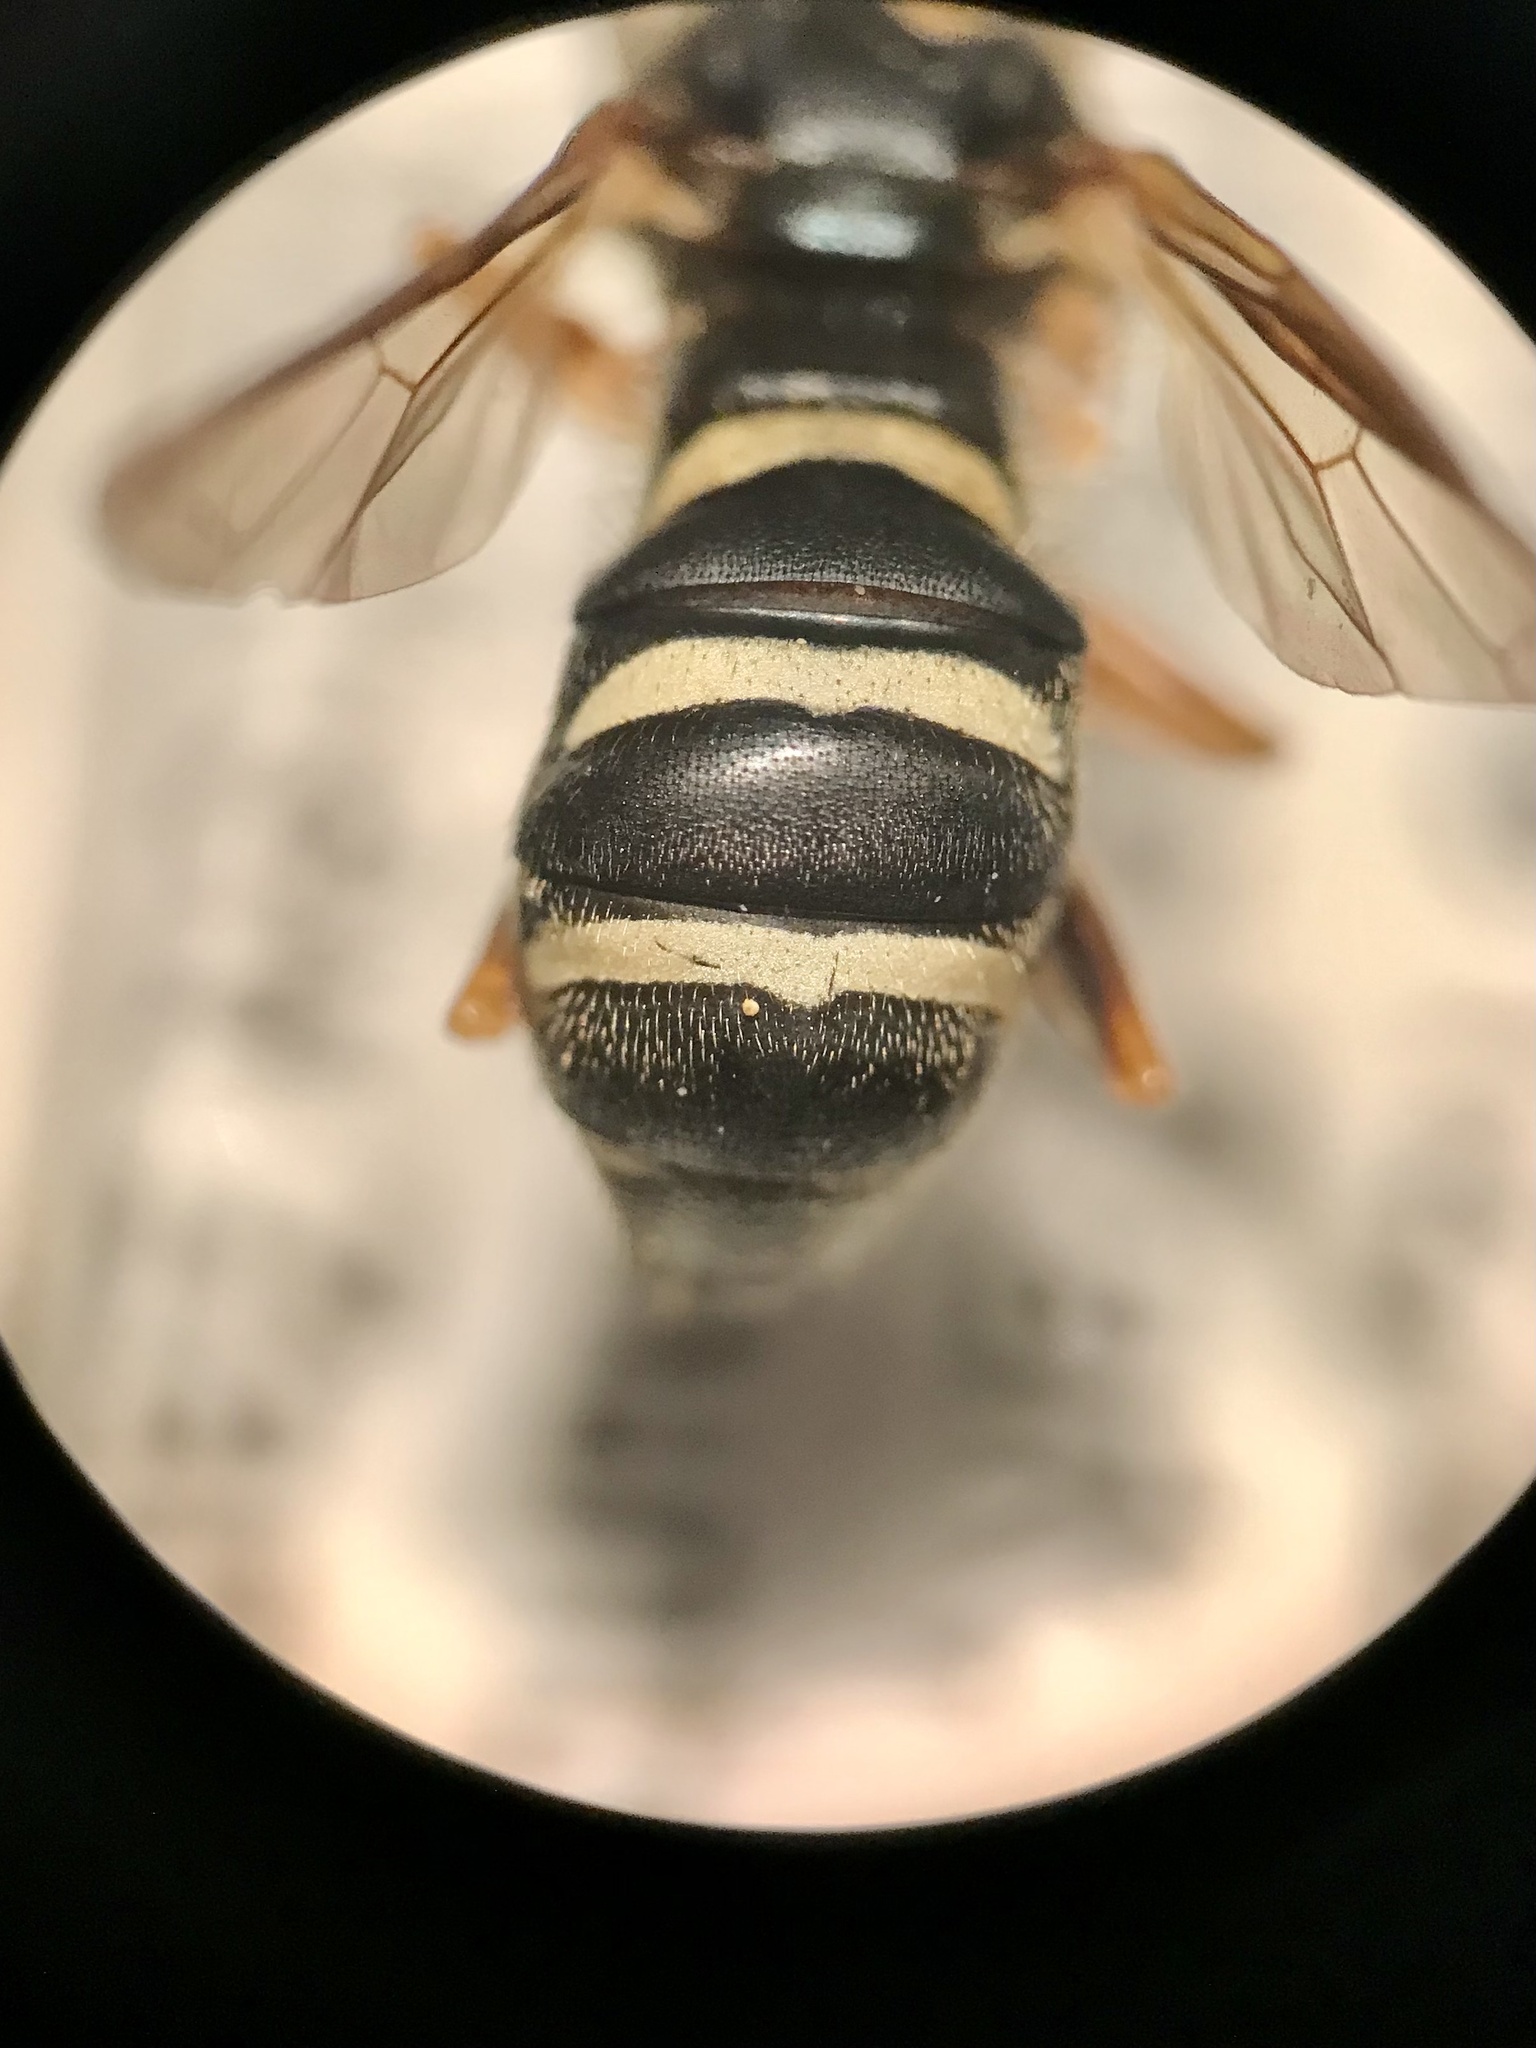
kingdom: Animalia
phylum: Arthropoda
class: Insecta
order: Diptera
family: Syrphidae
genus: Temnostoma
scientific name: Temnostoma balyras
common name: Yellow-haired falsehorn
